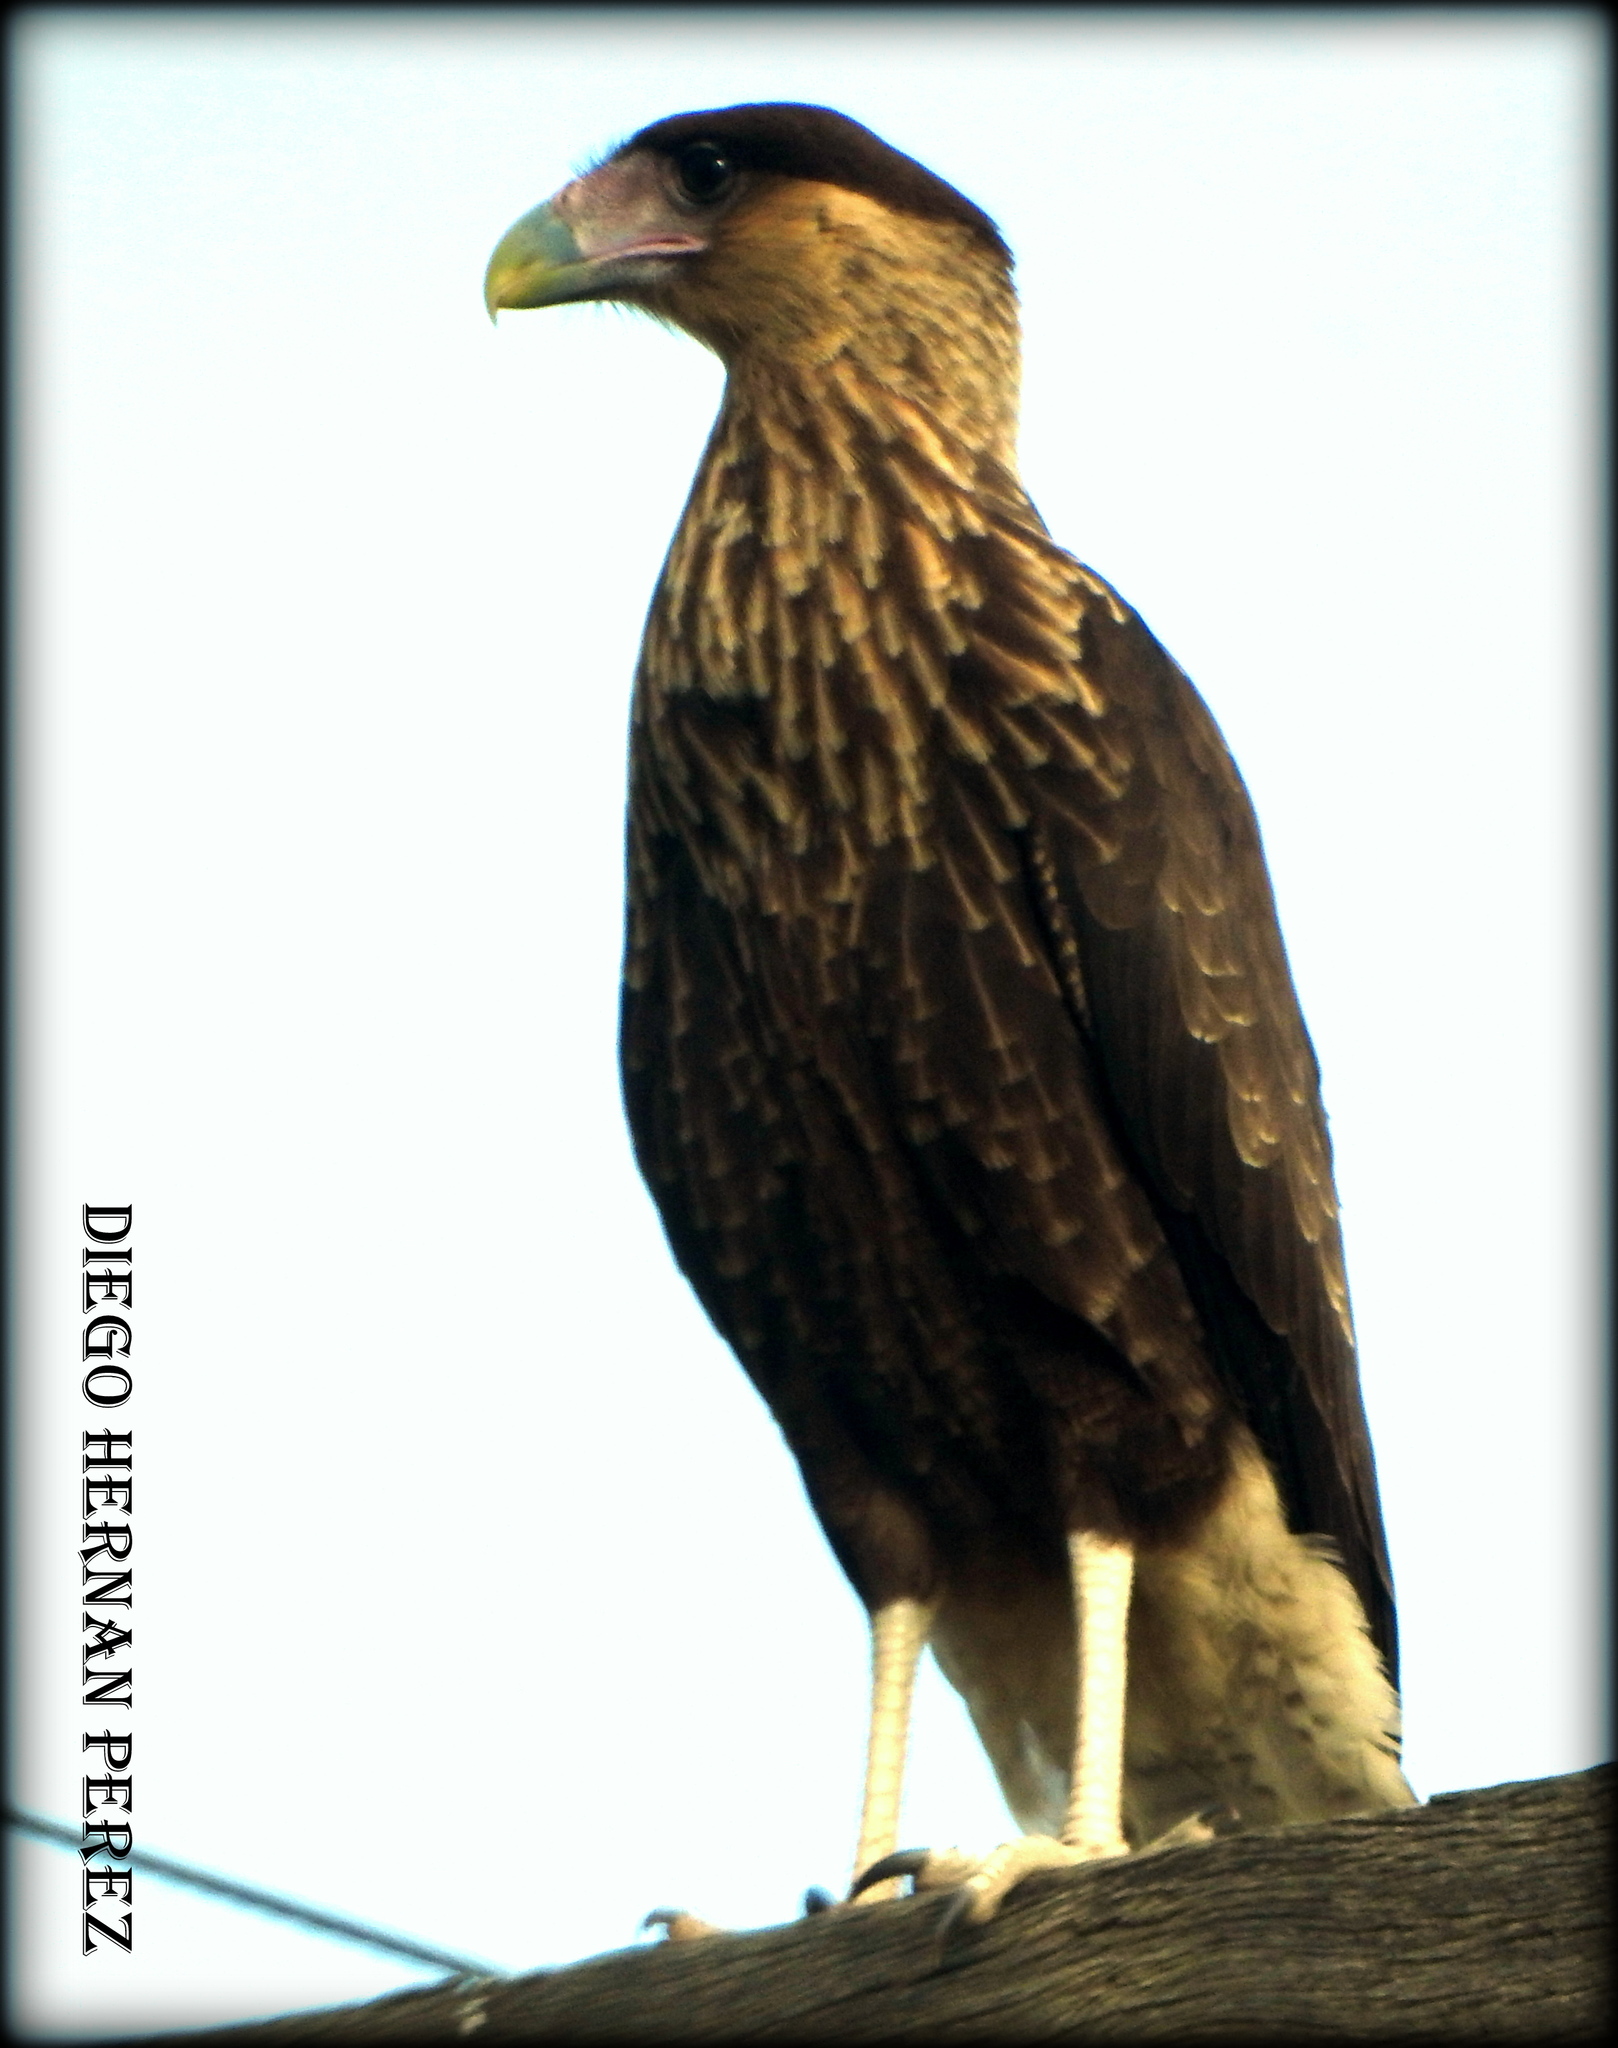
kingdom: Animalia
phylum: Chordata
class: Aves
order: Falconiformes
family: Falconidae
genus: Caracara
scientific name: Caracara plancus
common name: Southern caracara
